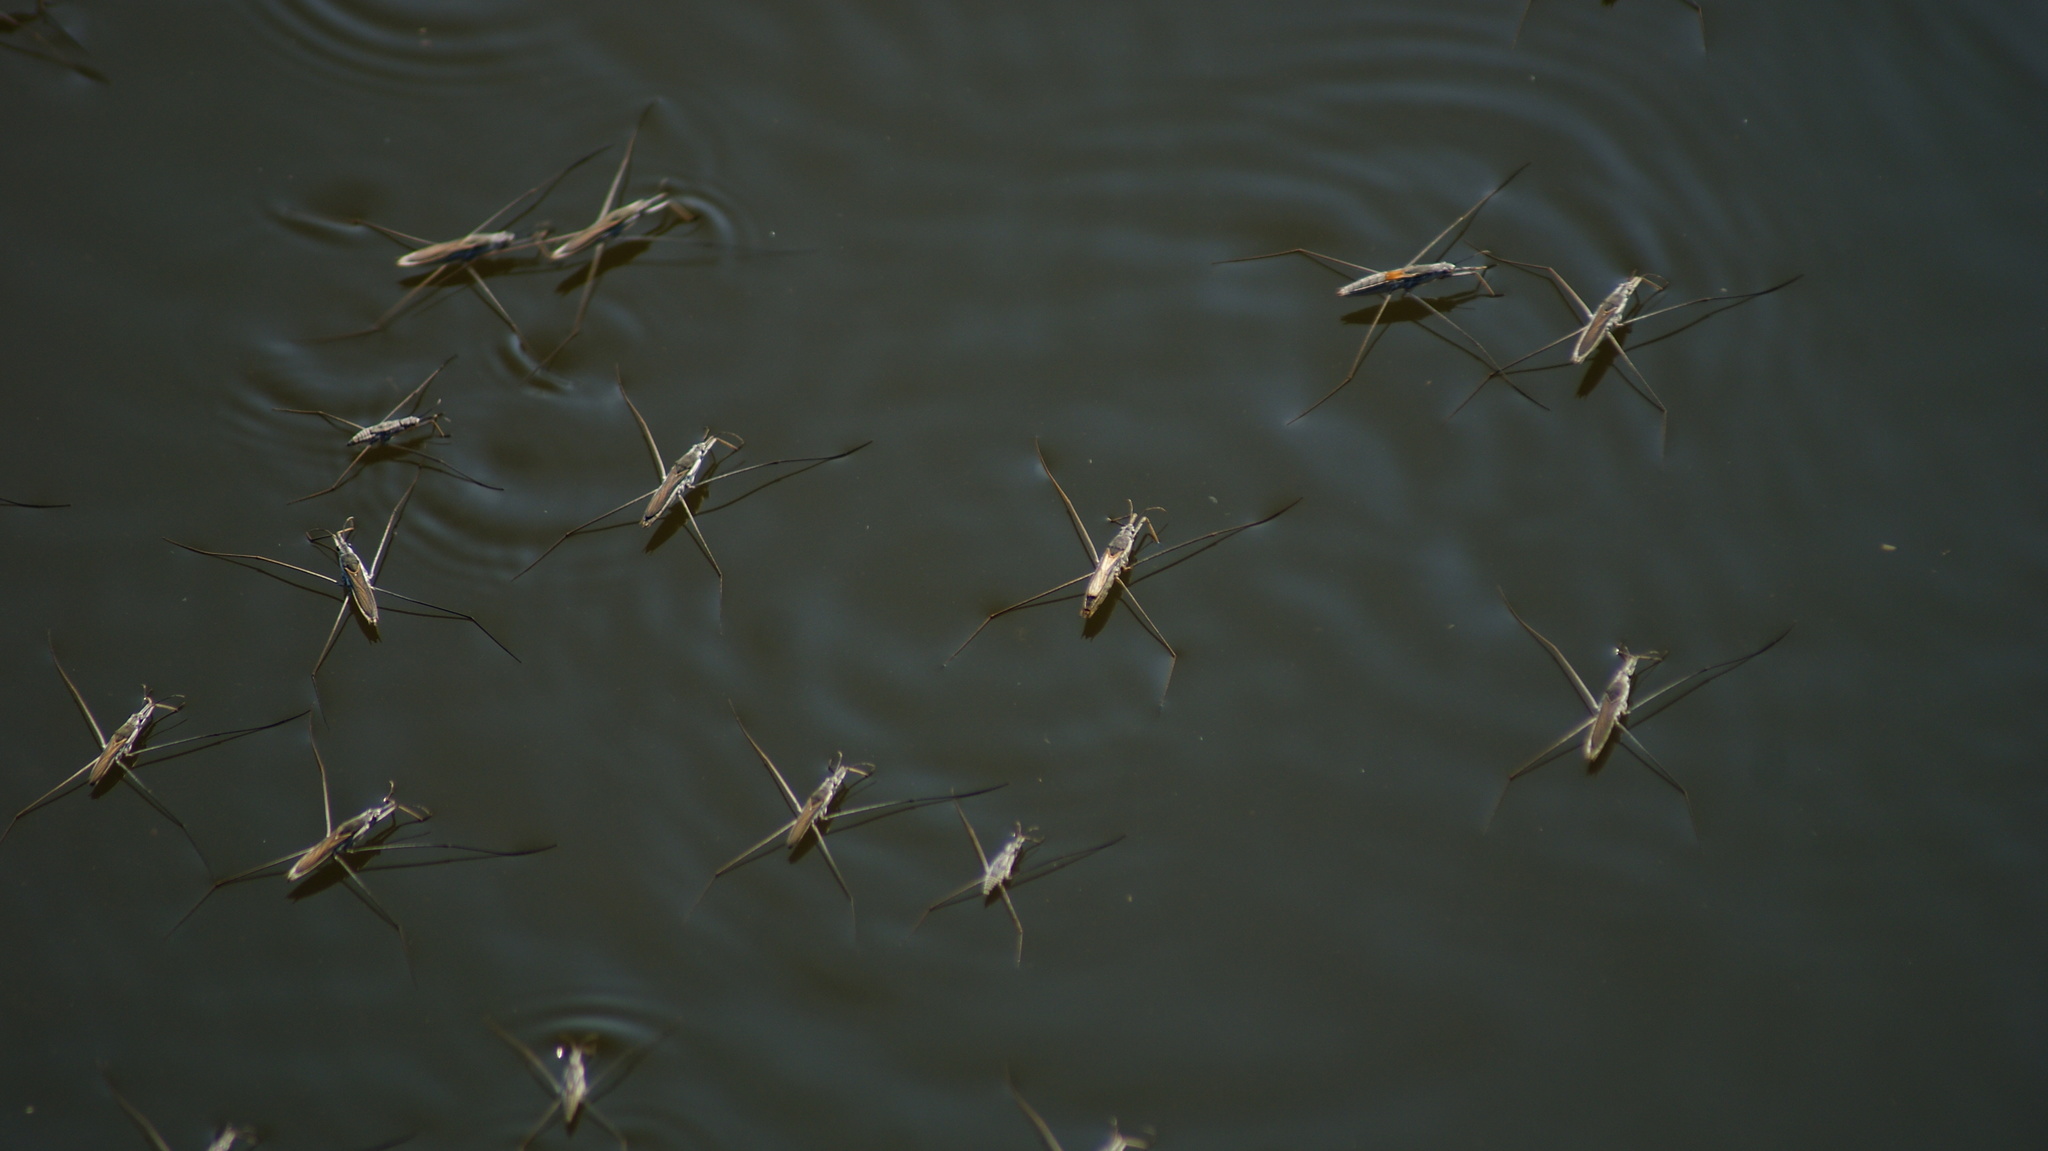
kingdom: Animalia
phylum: Arthropoda
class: Insecta
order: Hemiptera
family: Gerridae
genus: Aquarius
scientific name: Aquarius adelaidis
